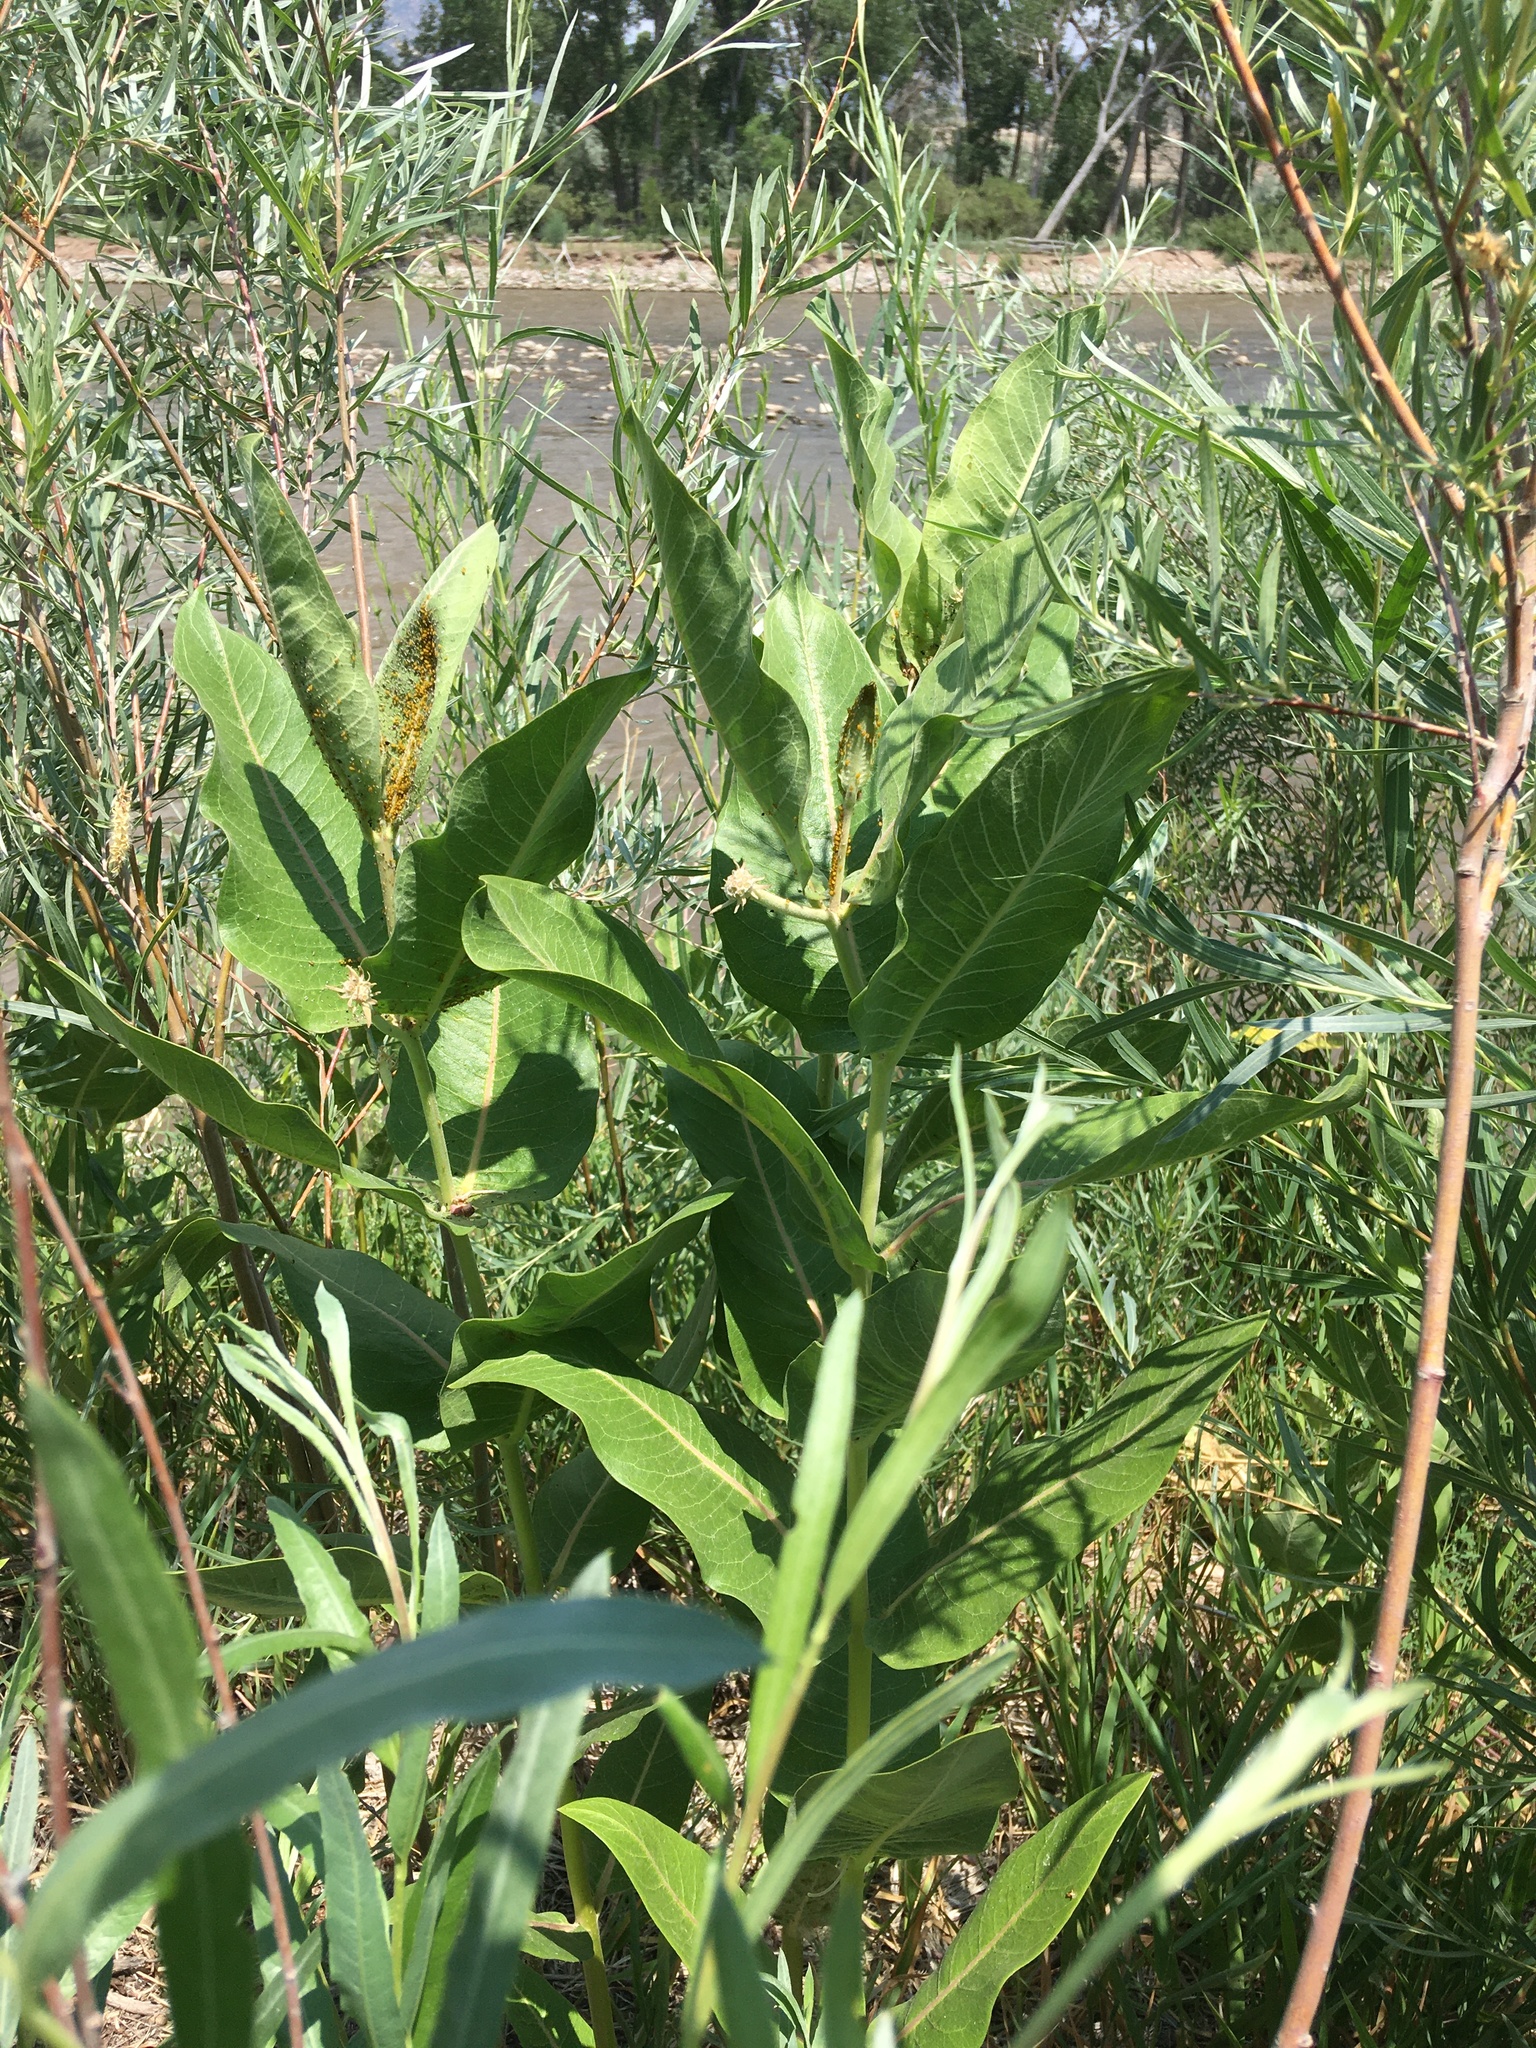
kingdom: Plantae
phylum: Tracheophyta
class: Magnoliopsida
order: Gentianales
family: Apocynaceae
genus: Asclepias
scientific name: Asclepias speciosa
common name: Showy milkweed
